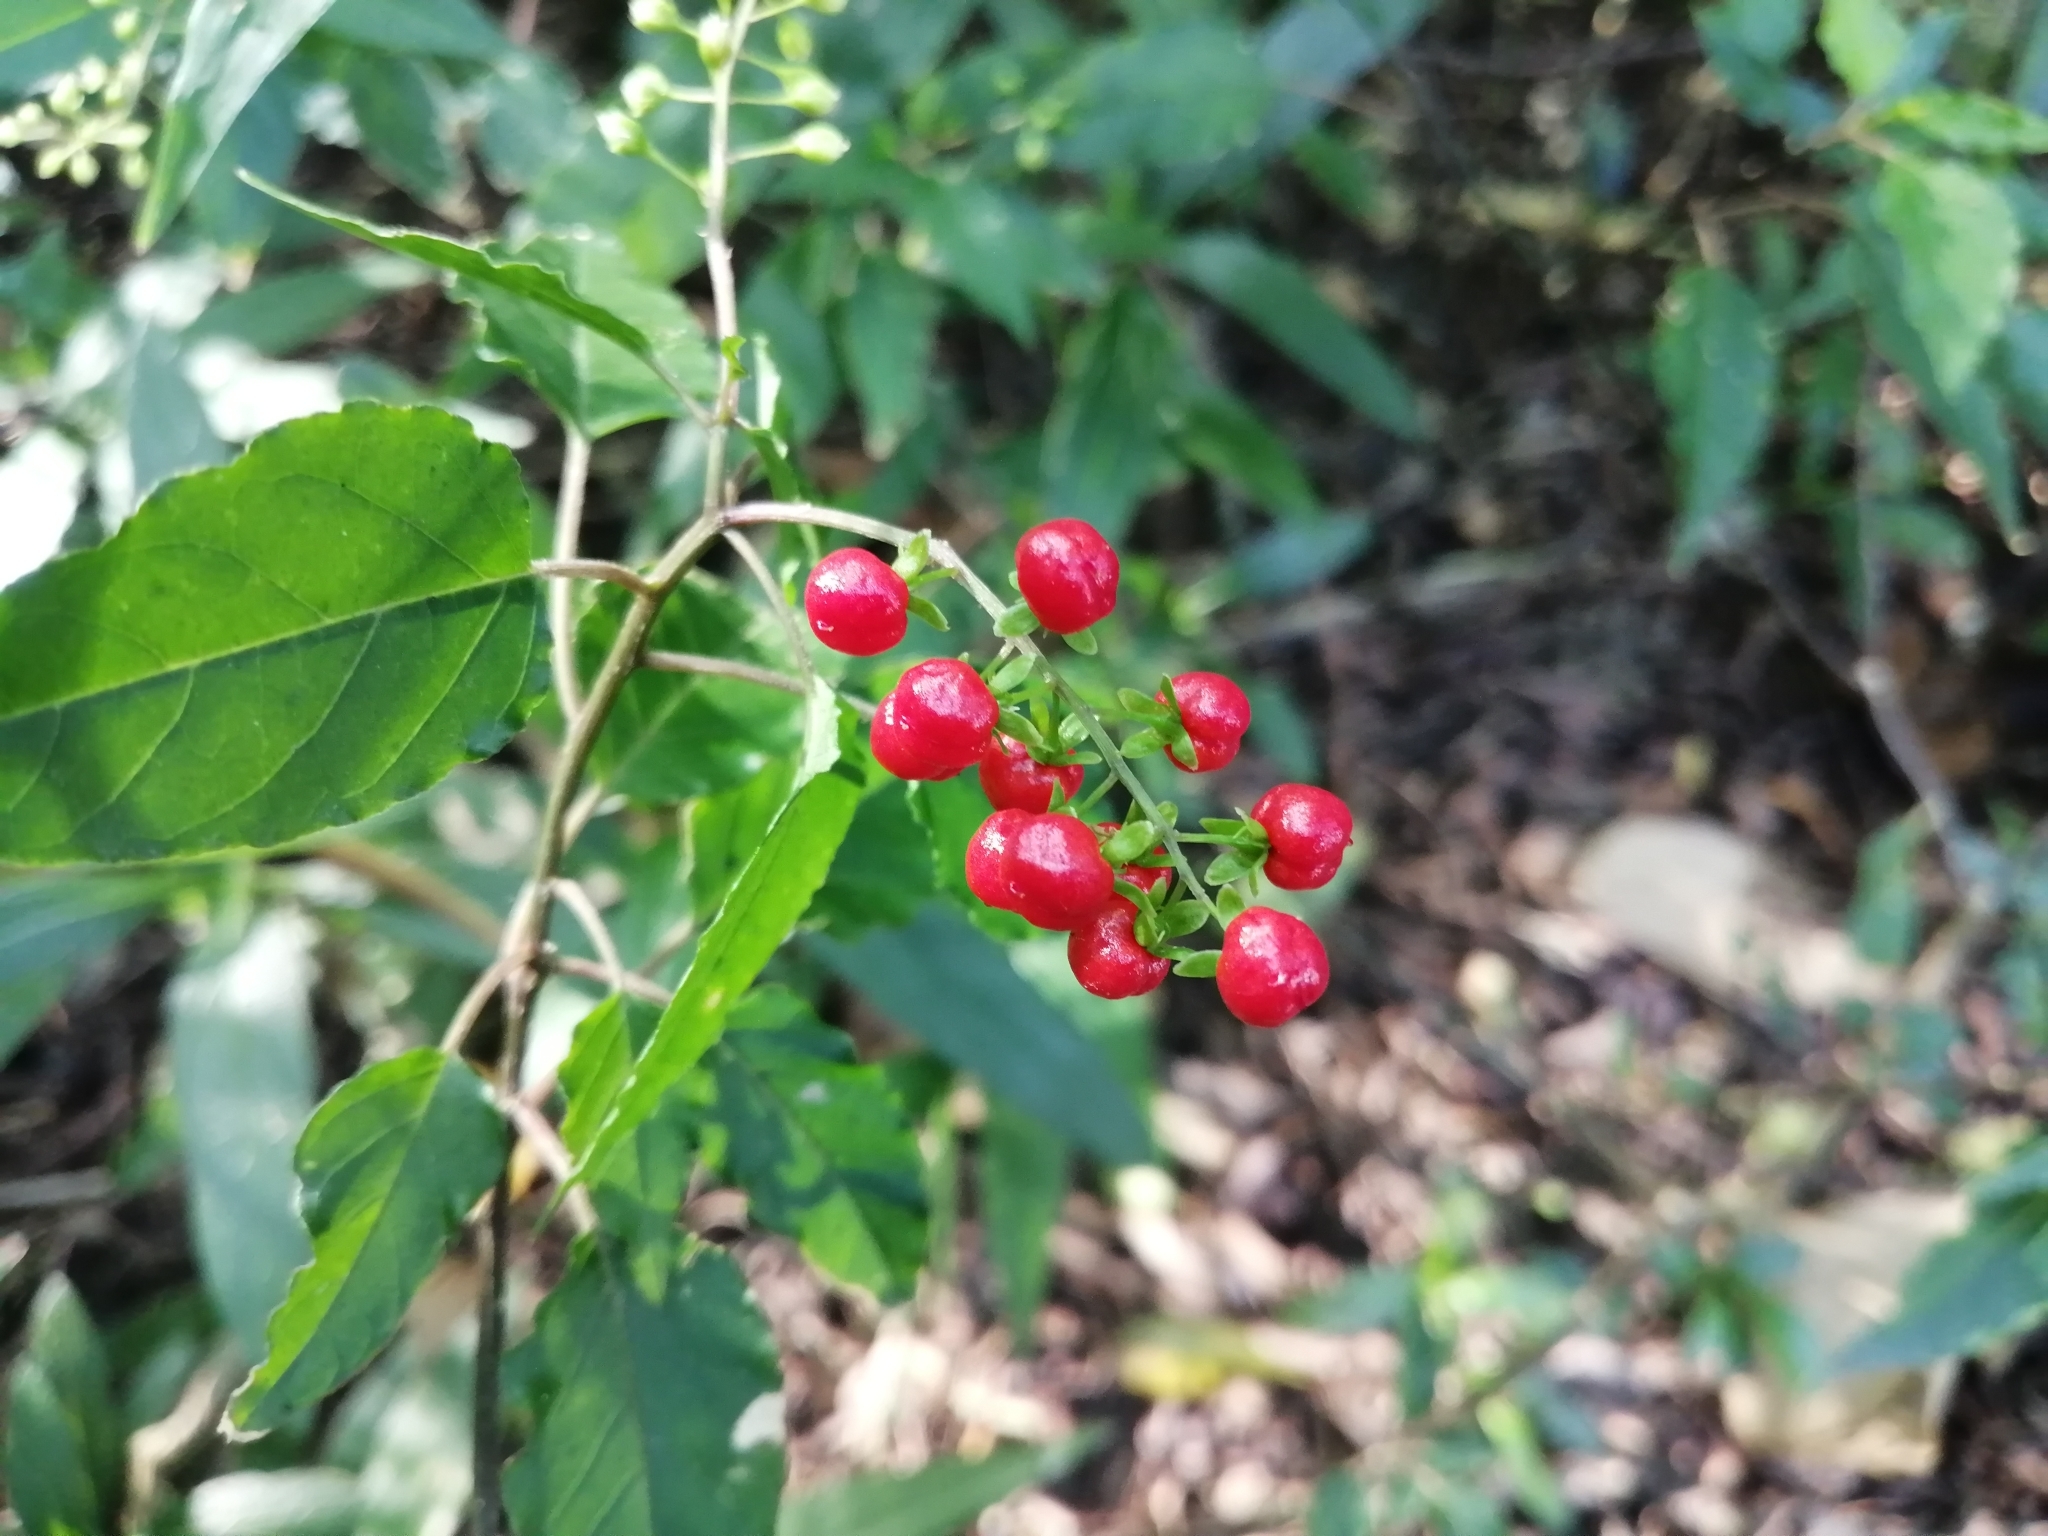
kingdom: Plantae
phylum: Tracheophyta
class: Magnoliopsida
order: Caryophyllales
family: Phytolaccaceae
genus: Rivina
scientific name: Rivina humilis
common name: Rougeplant
